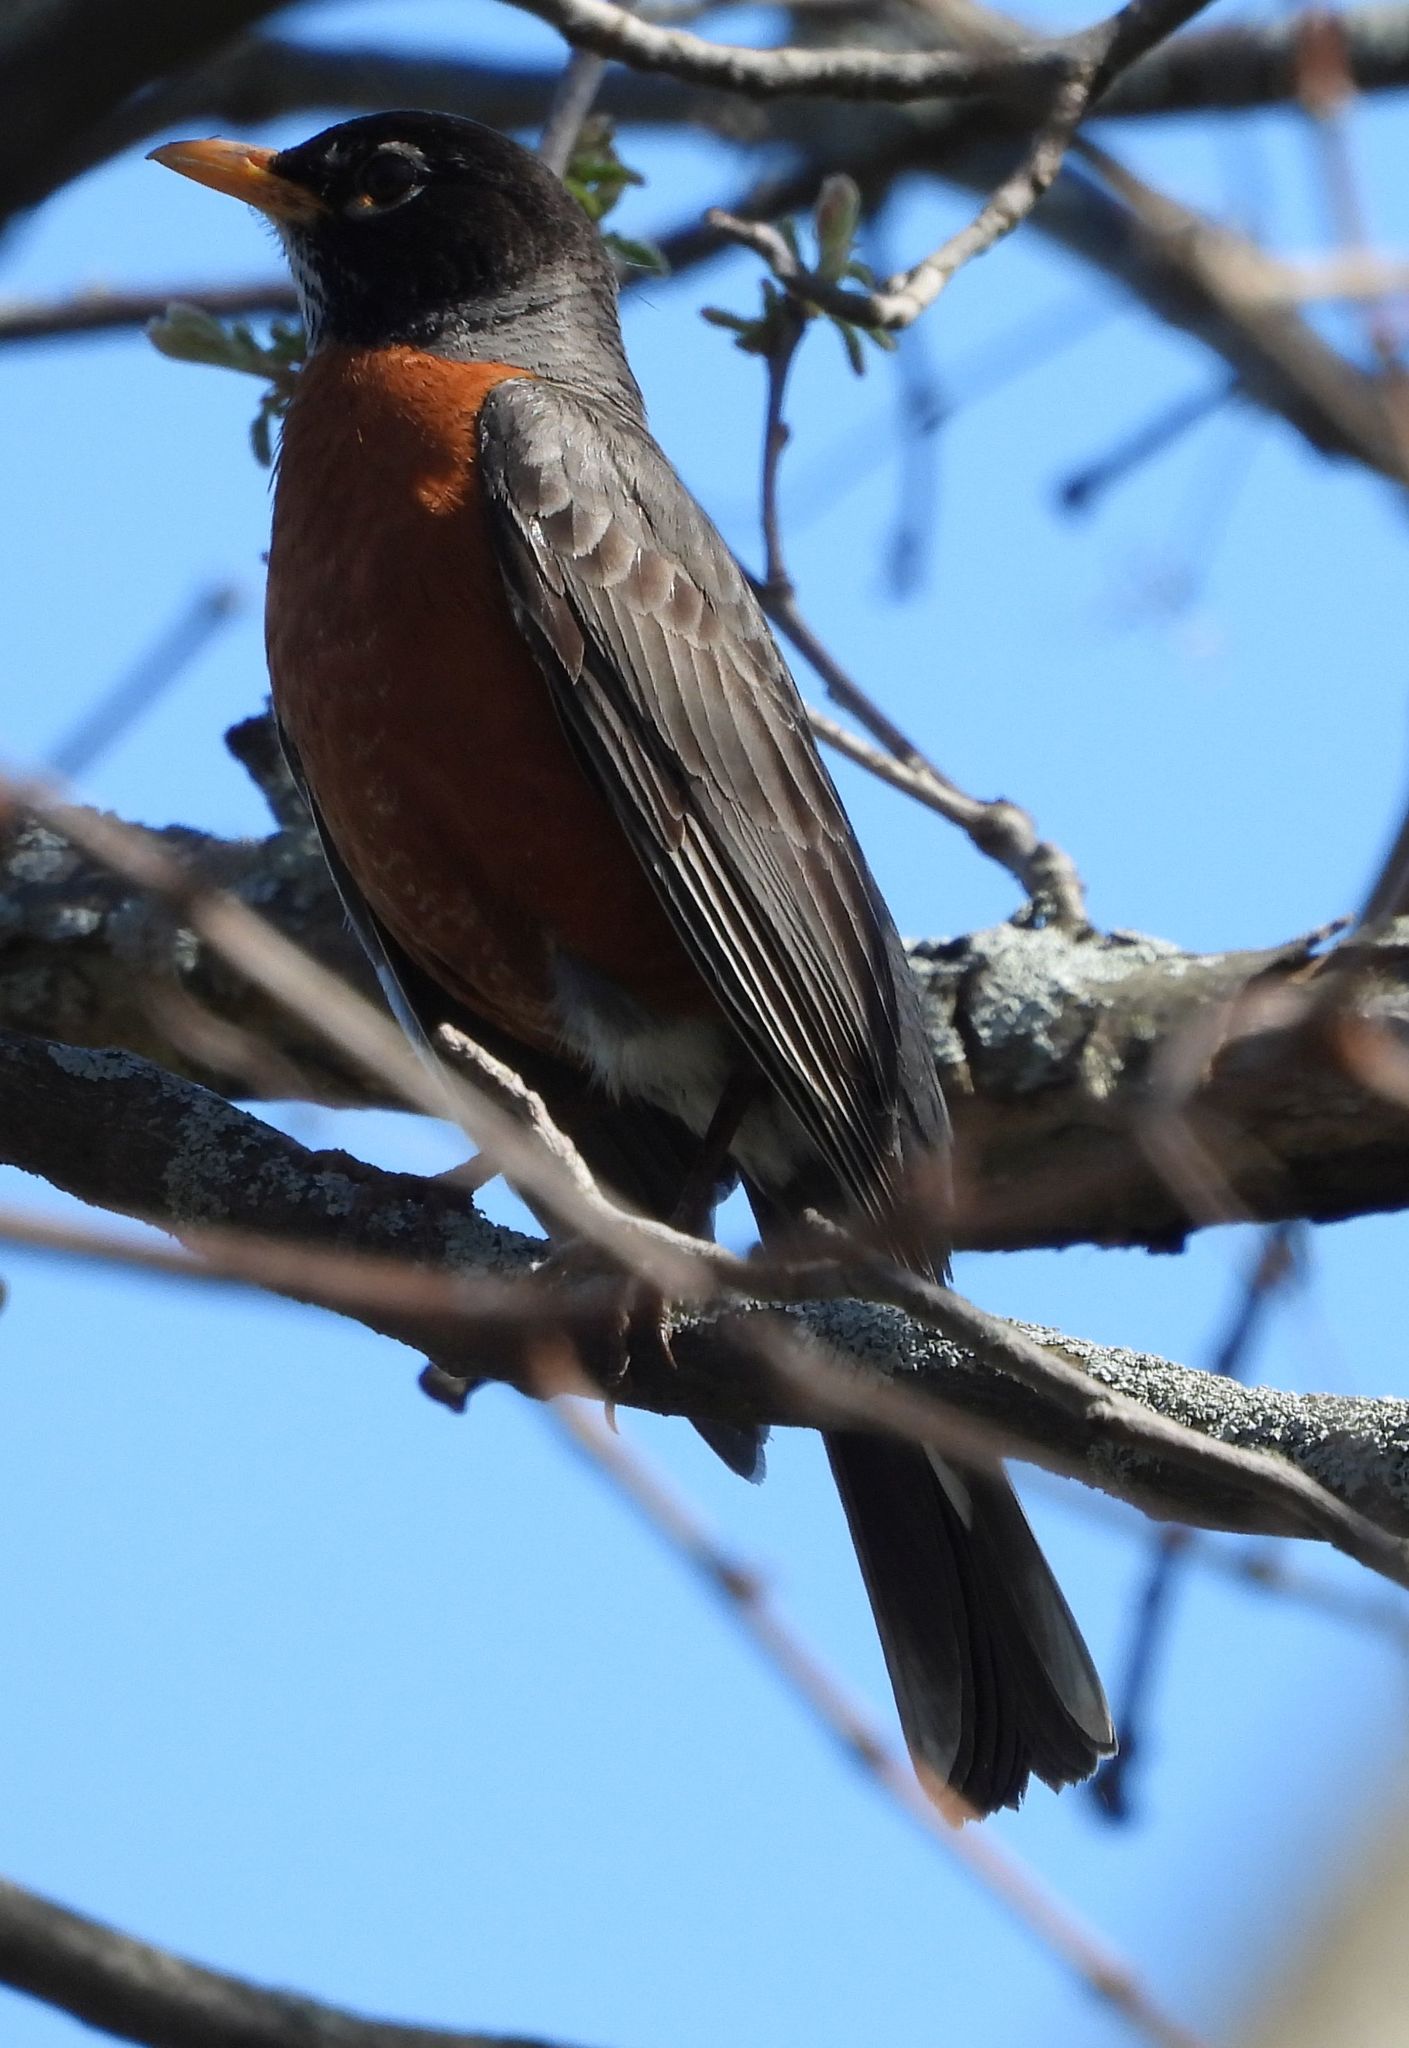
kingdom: Animalia
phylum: Chordata
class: Aves
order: Passeriformes
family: Turdidae
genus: Turdus
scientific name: Turdus migratorius
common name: American robin
